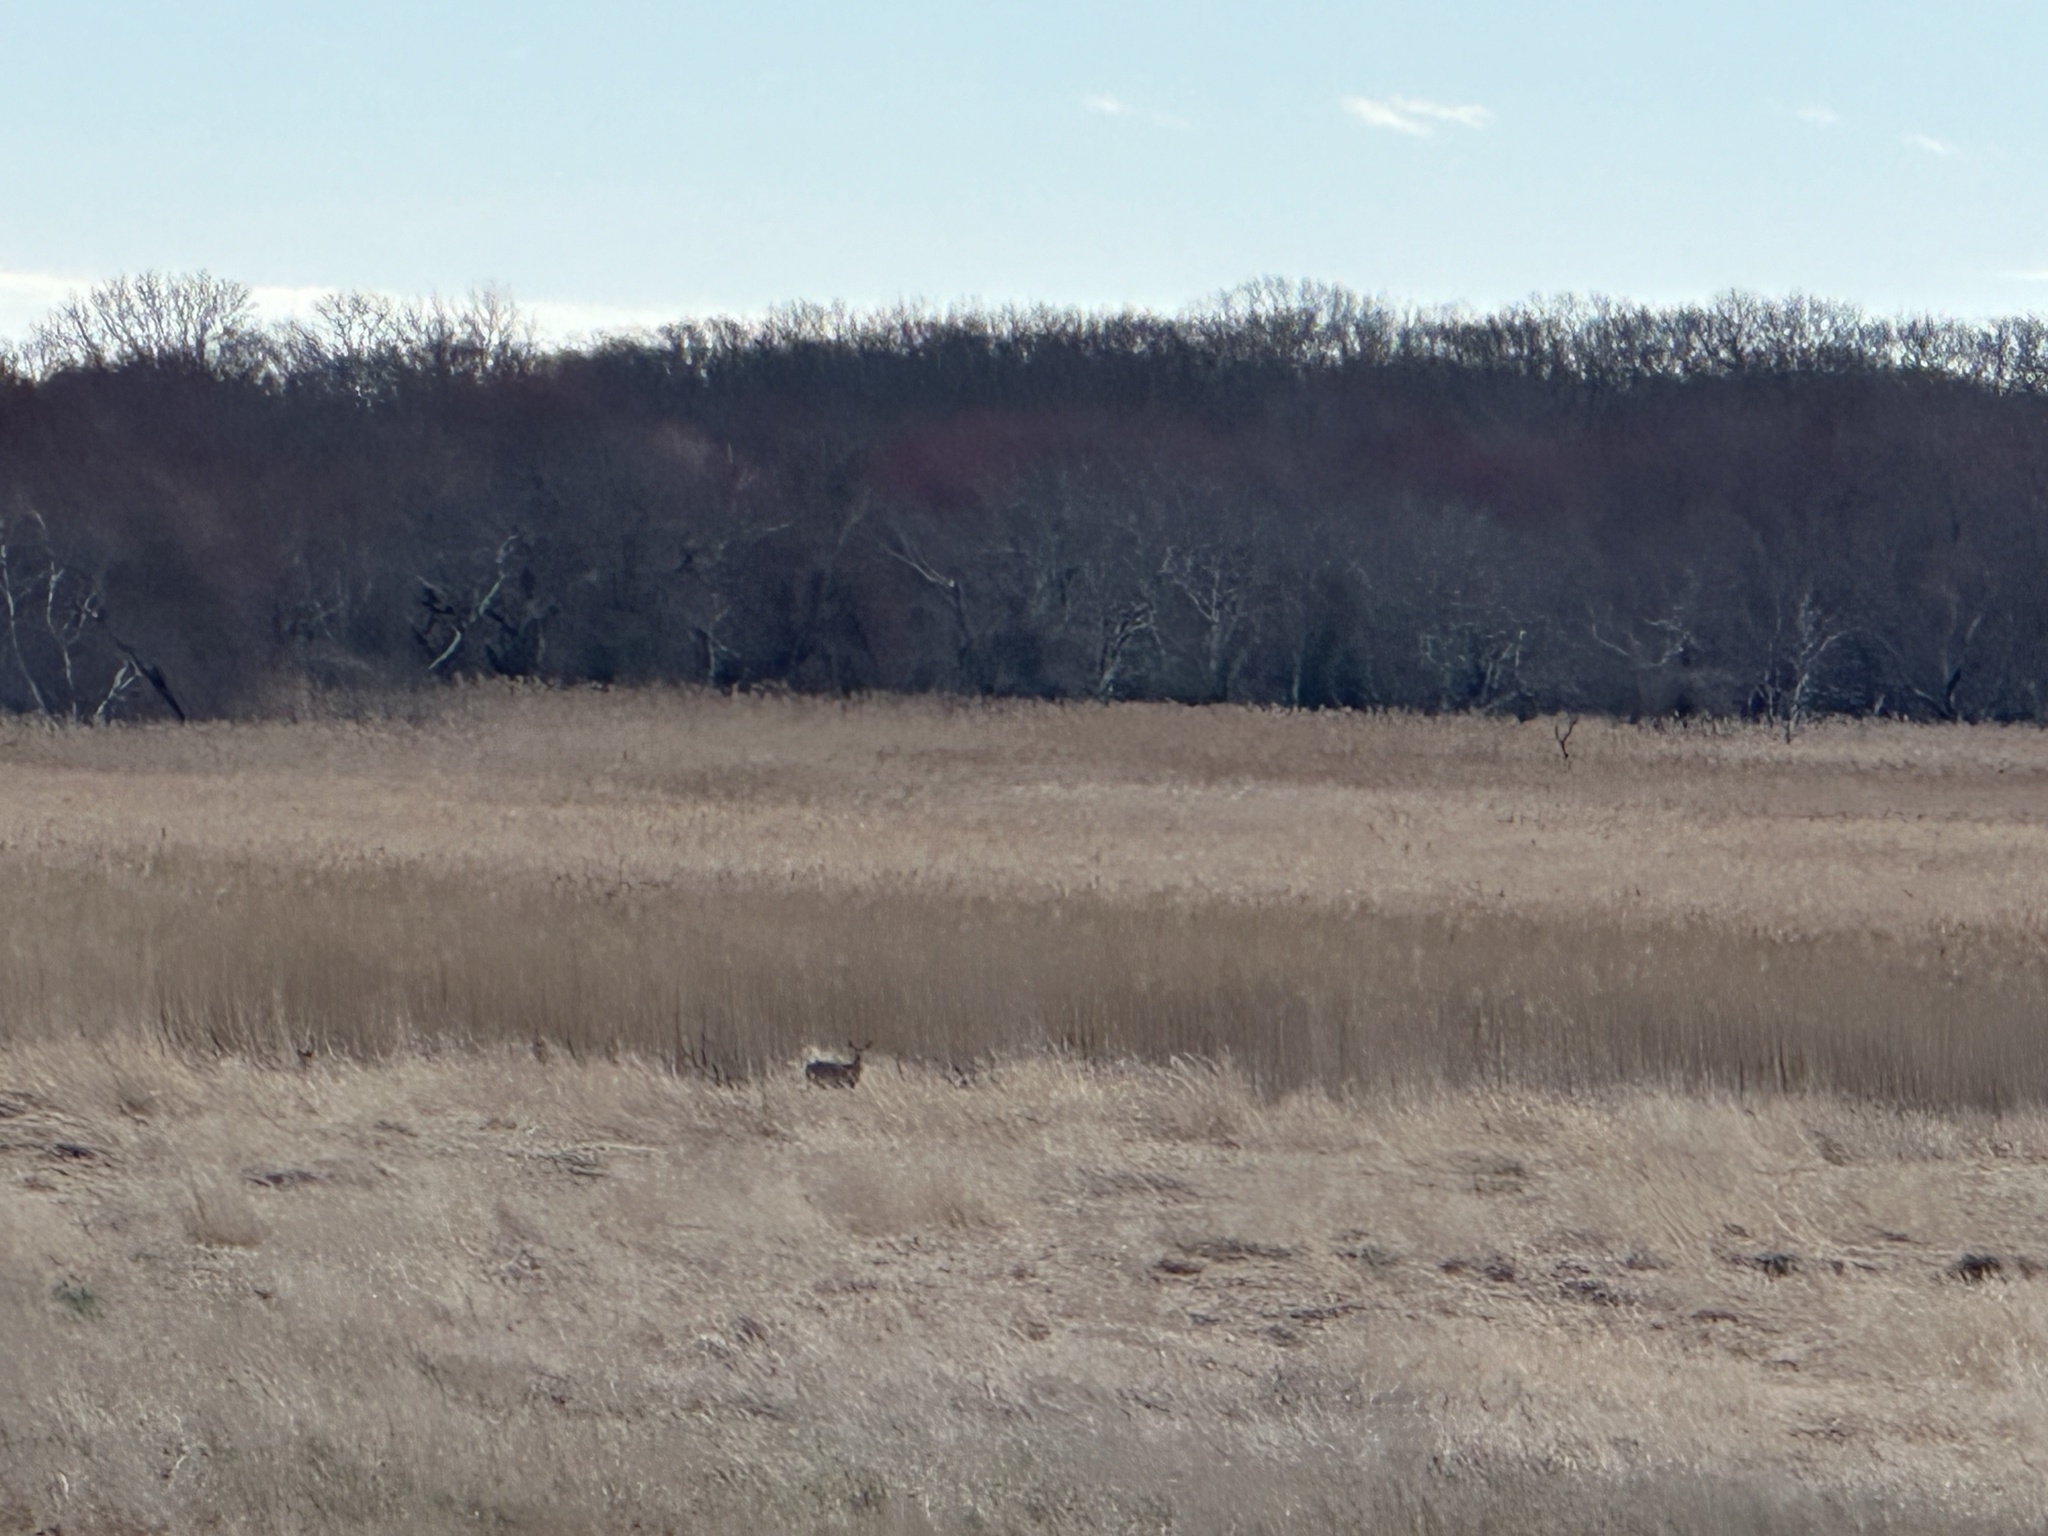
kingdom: Animalia
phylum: Chordata
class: Mammalia
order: Artiodactyla
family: Cervidae
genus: Odocoileus
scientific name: Odocoileus virginianus
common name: White-tailed deer
